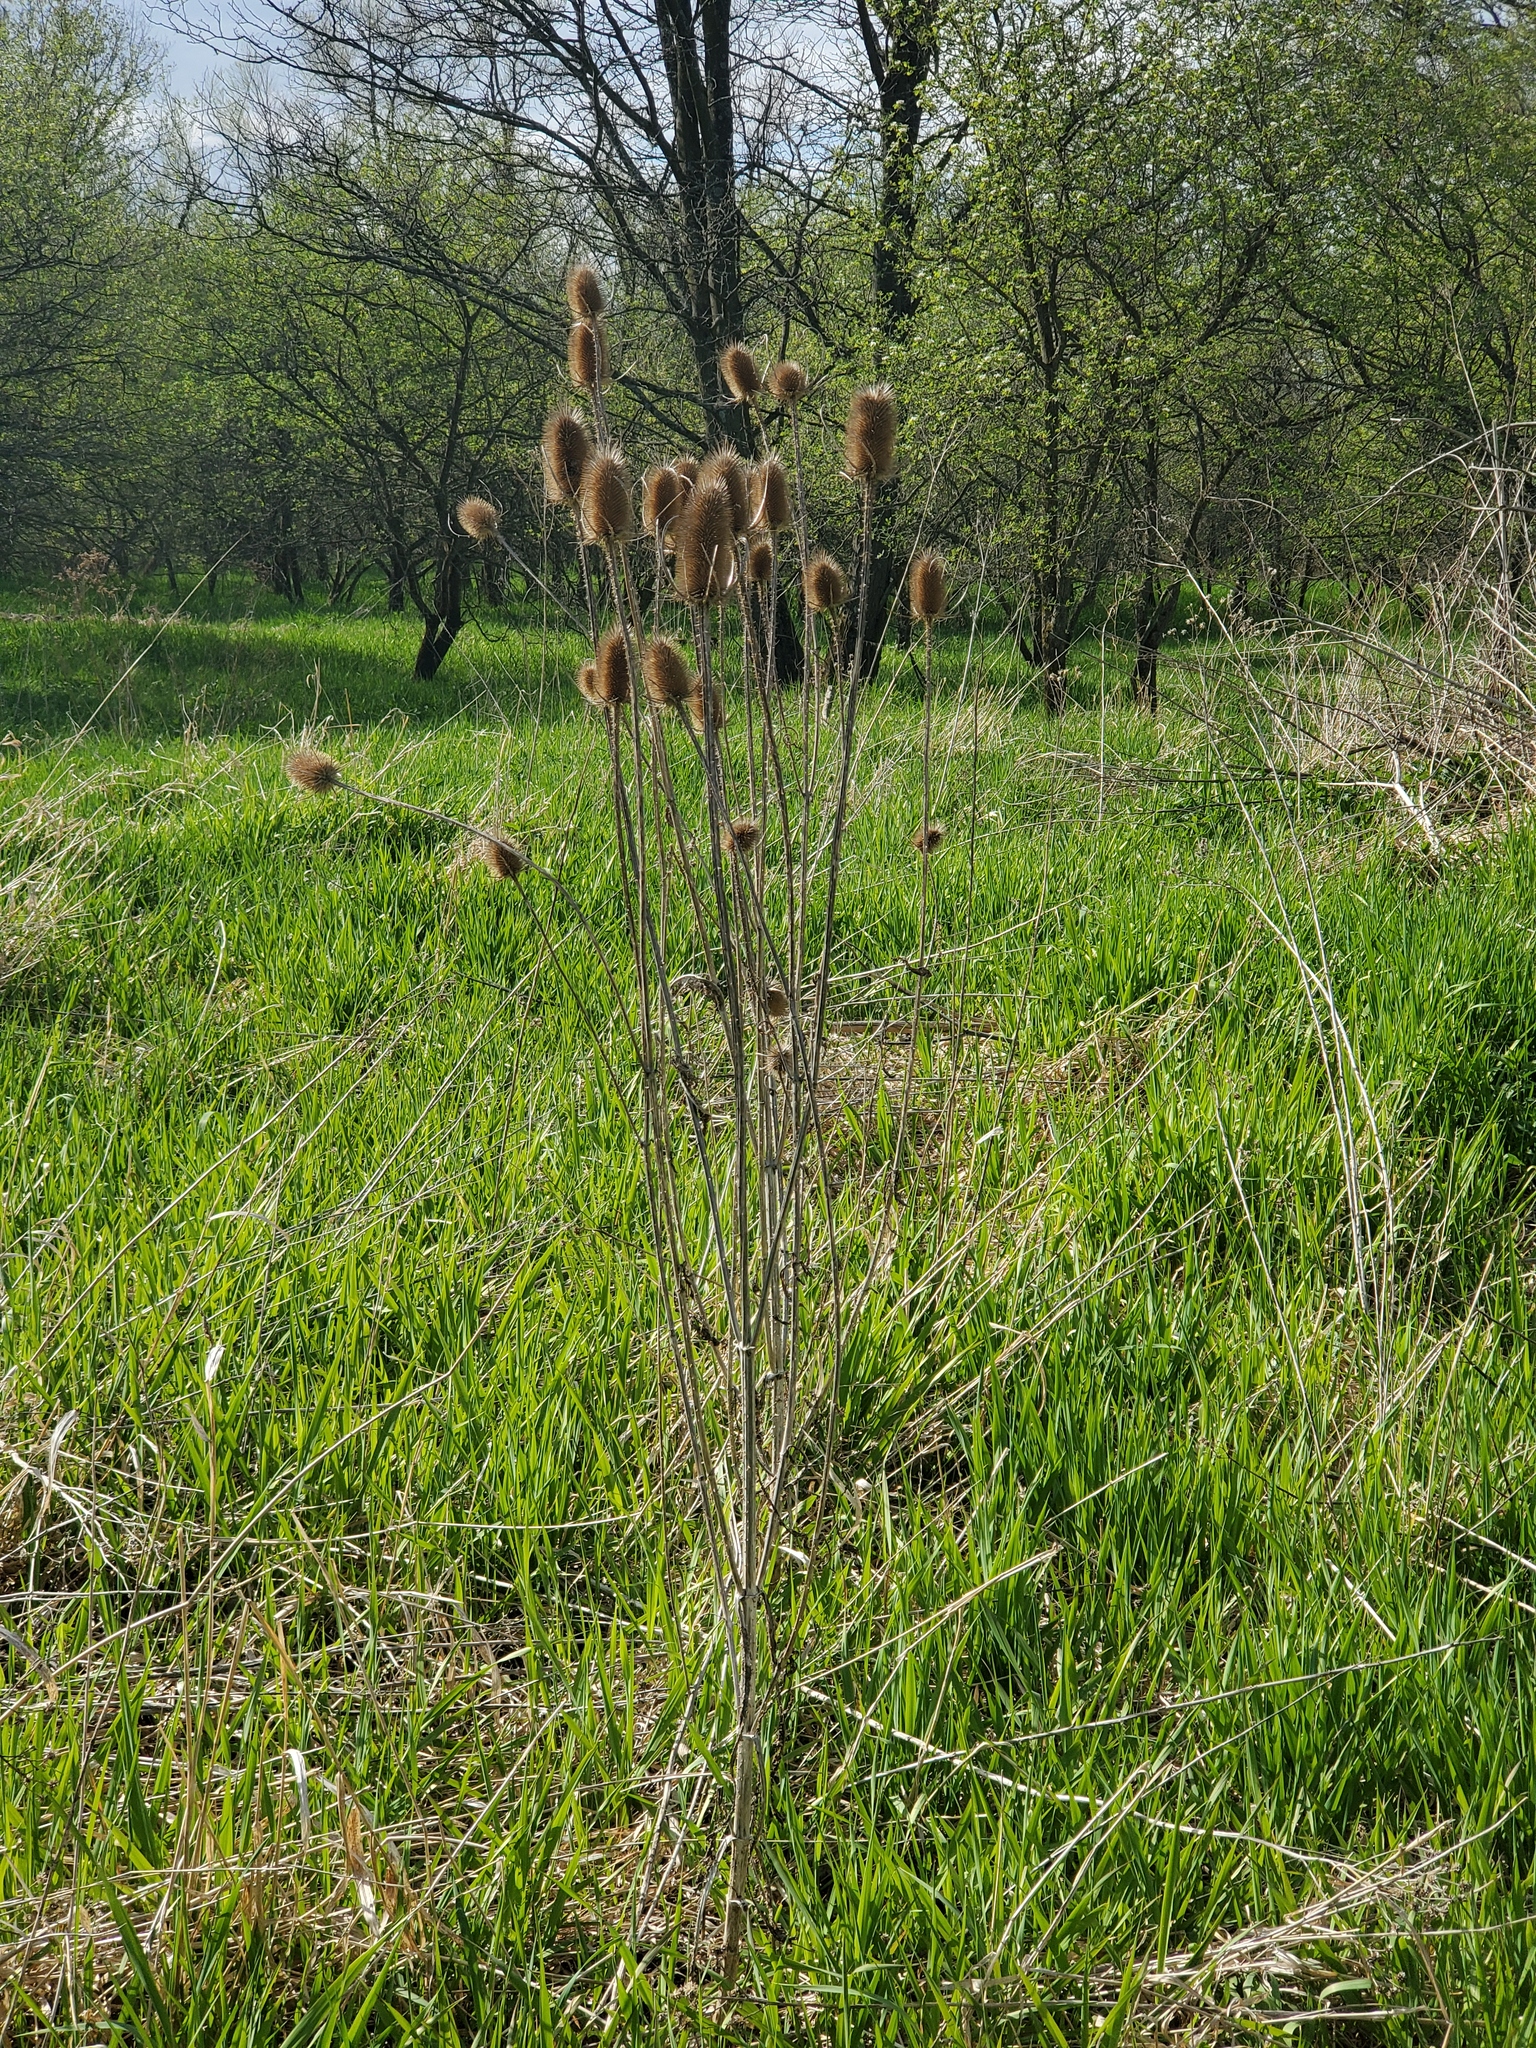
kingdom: Plantae
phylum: Tracheophyta
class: Magnoliopsida
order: Dipsacales
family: Caprifoliaceae
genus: Dipsacus
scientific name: Dipsacus laciniatus
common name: Cut-leaved teasel
